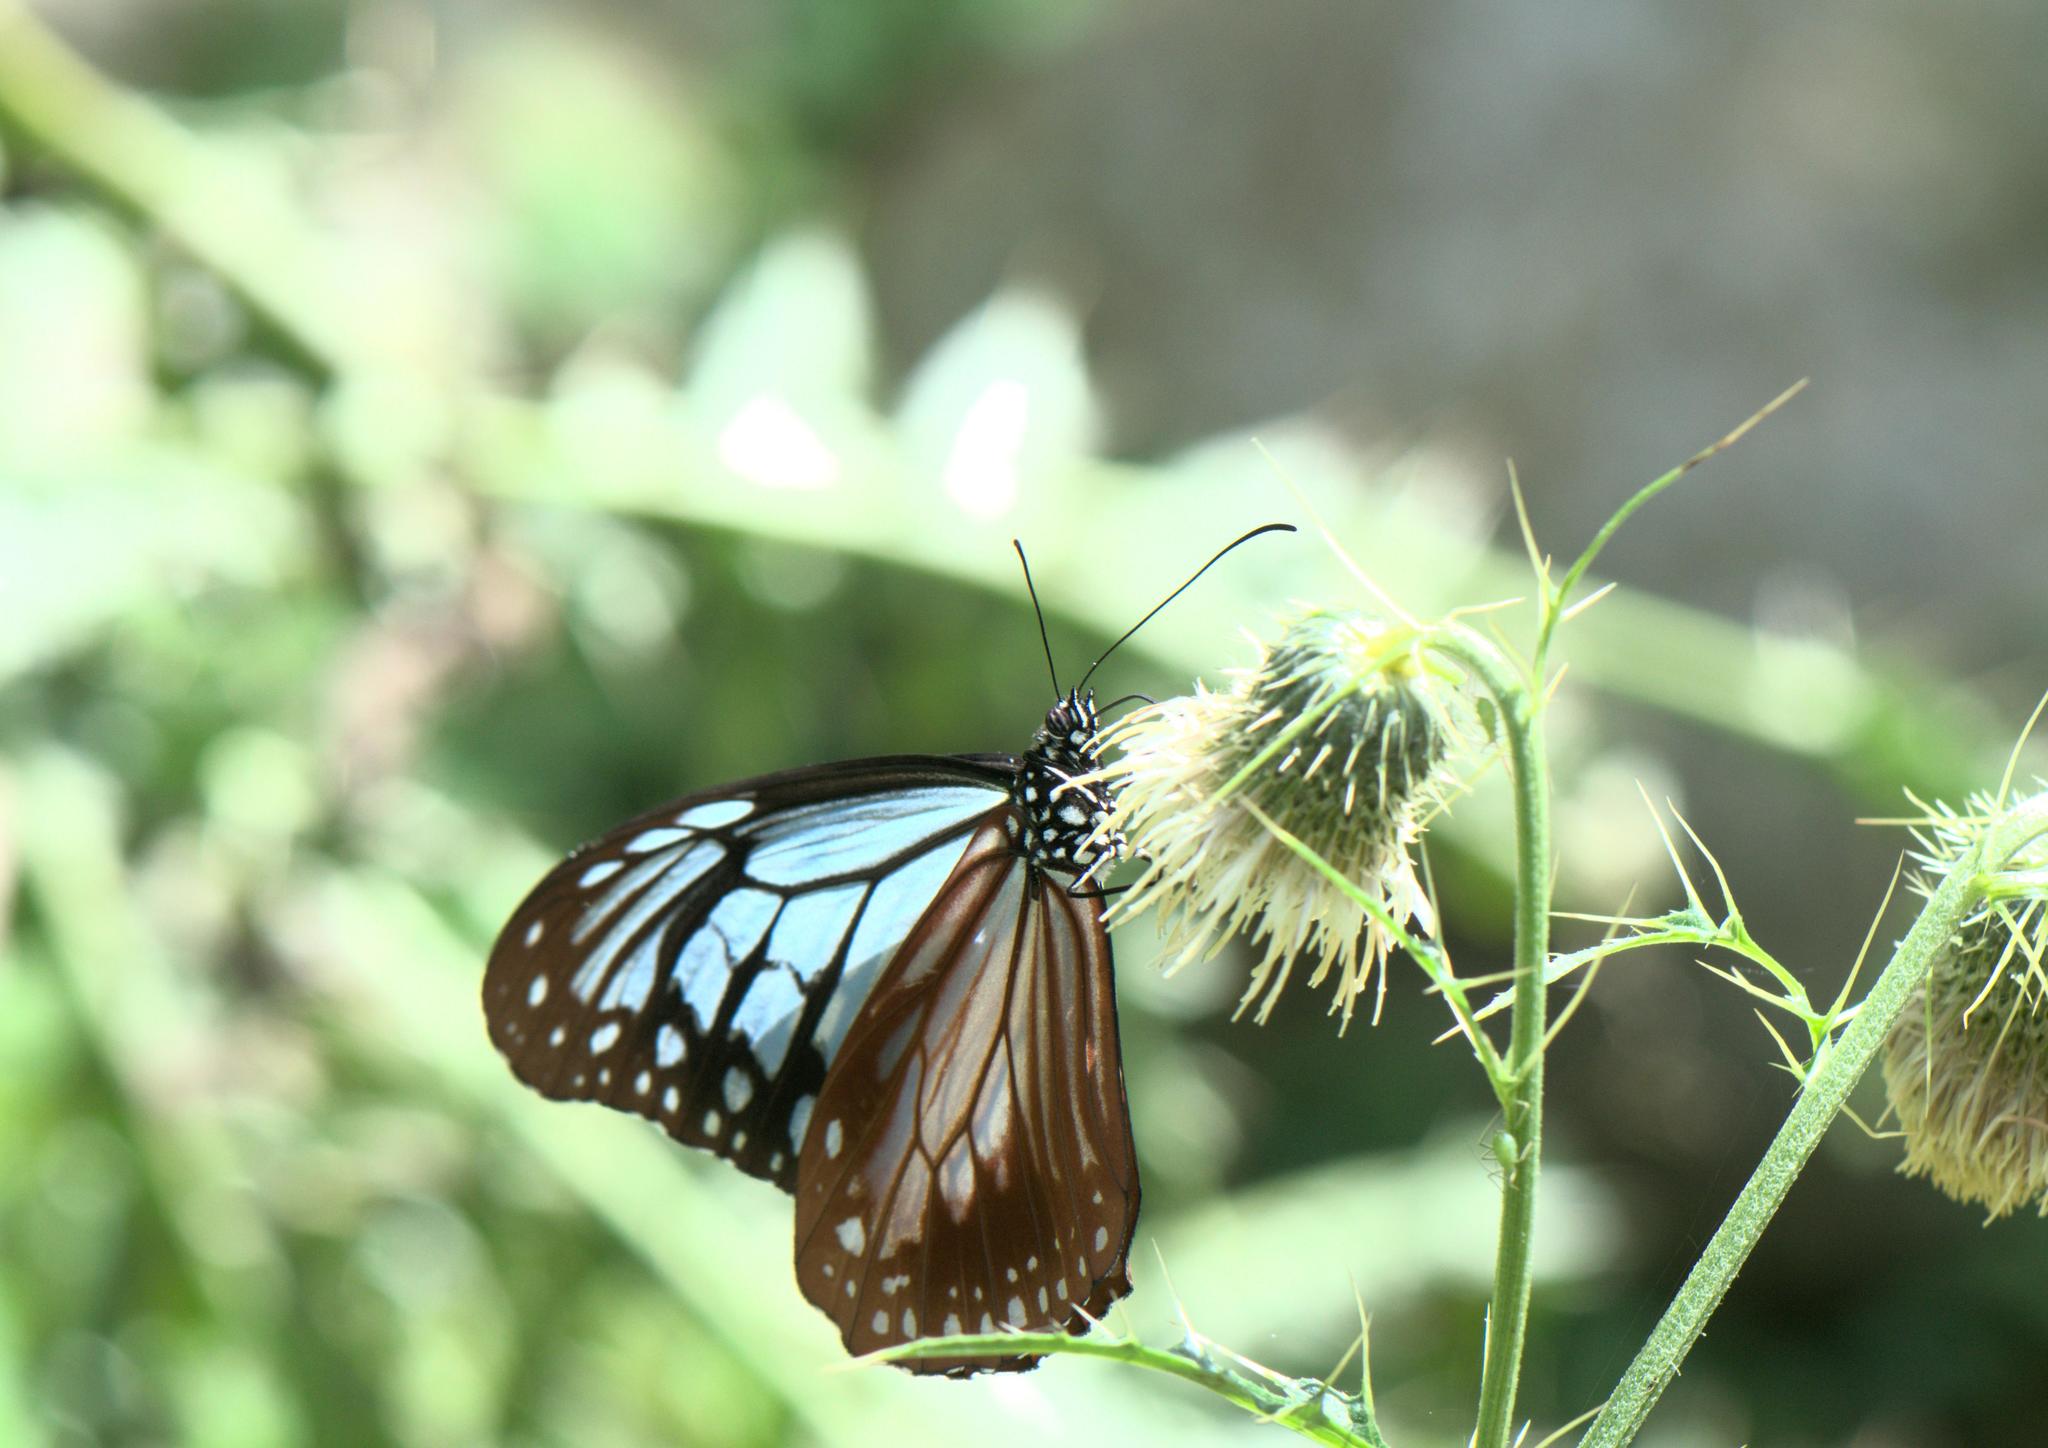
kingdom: Animalia
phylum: Arthropoda
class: Insecta
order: Lepidoptera
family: Nymphalidae
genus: Parantica
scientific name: Parantica sita
